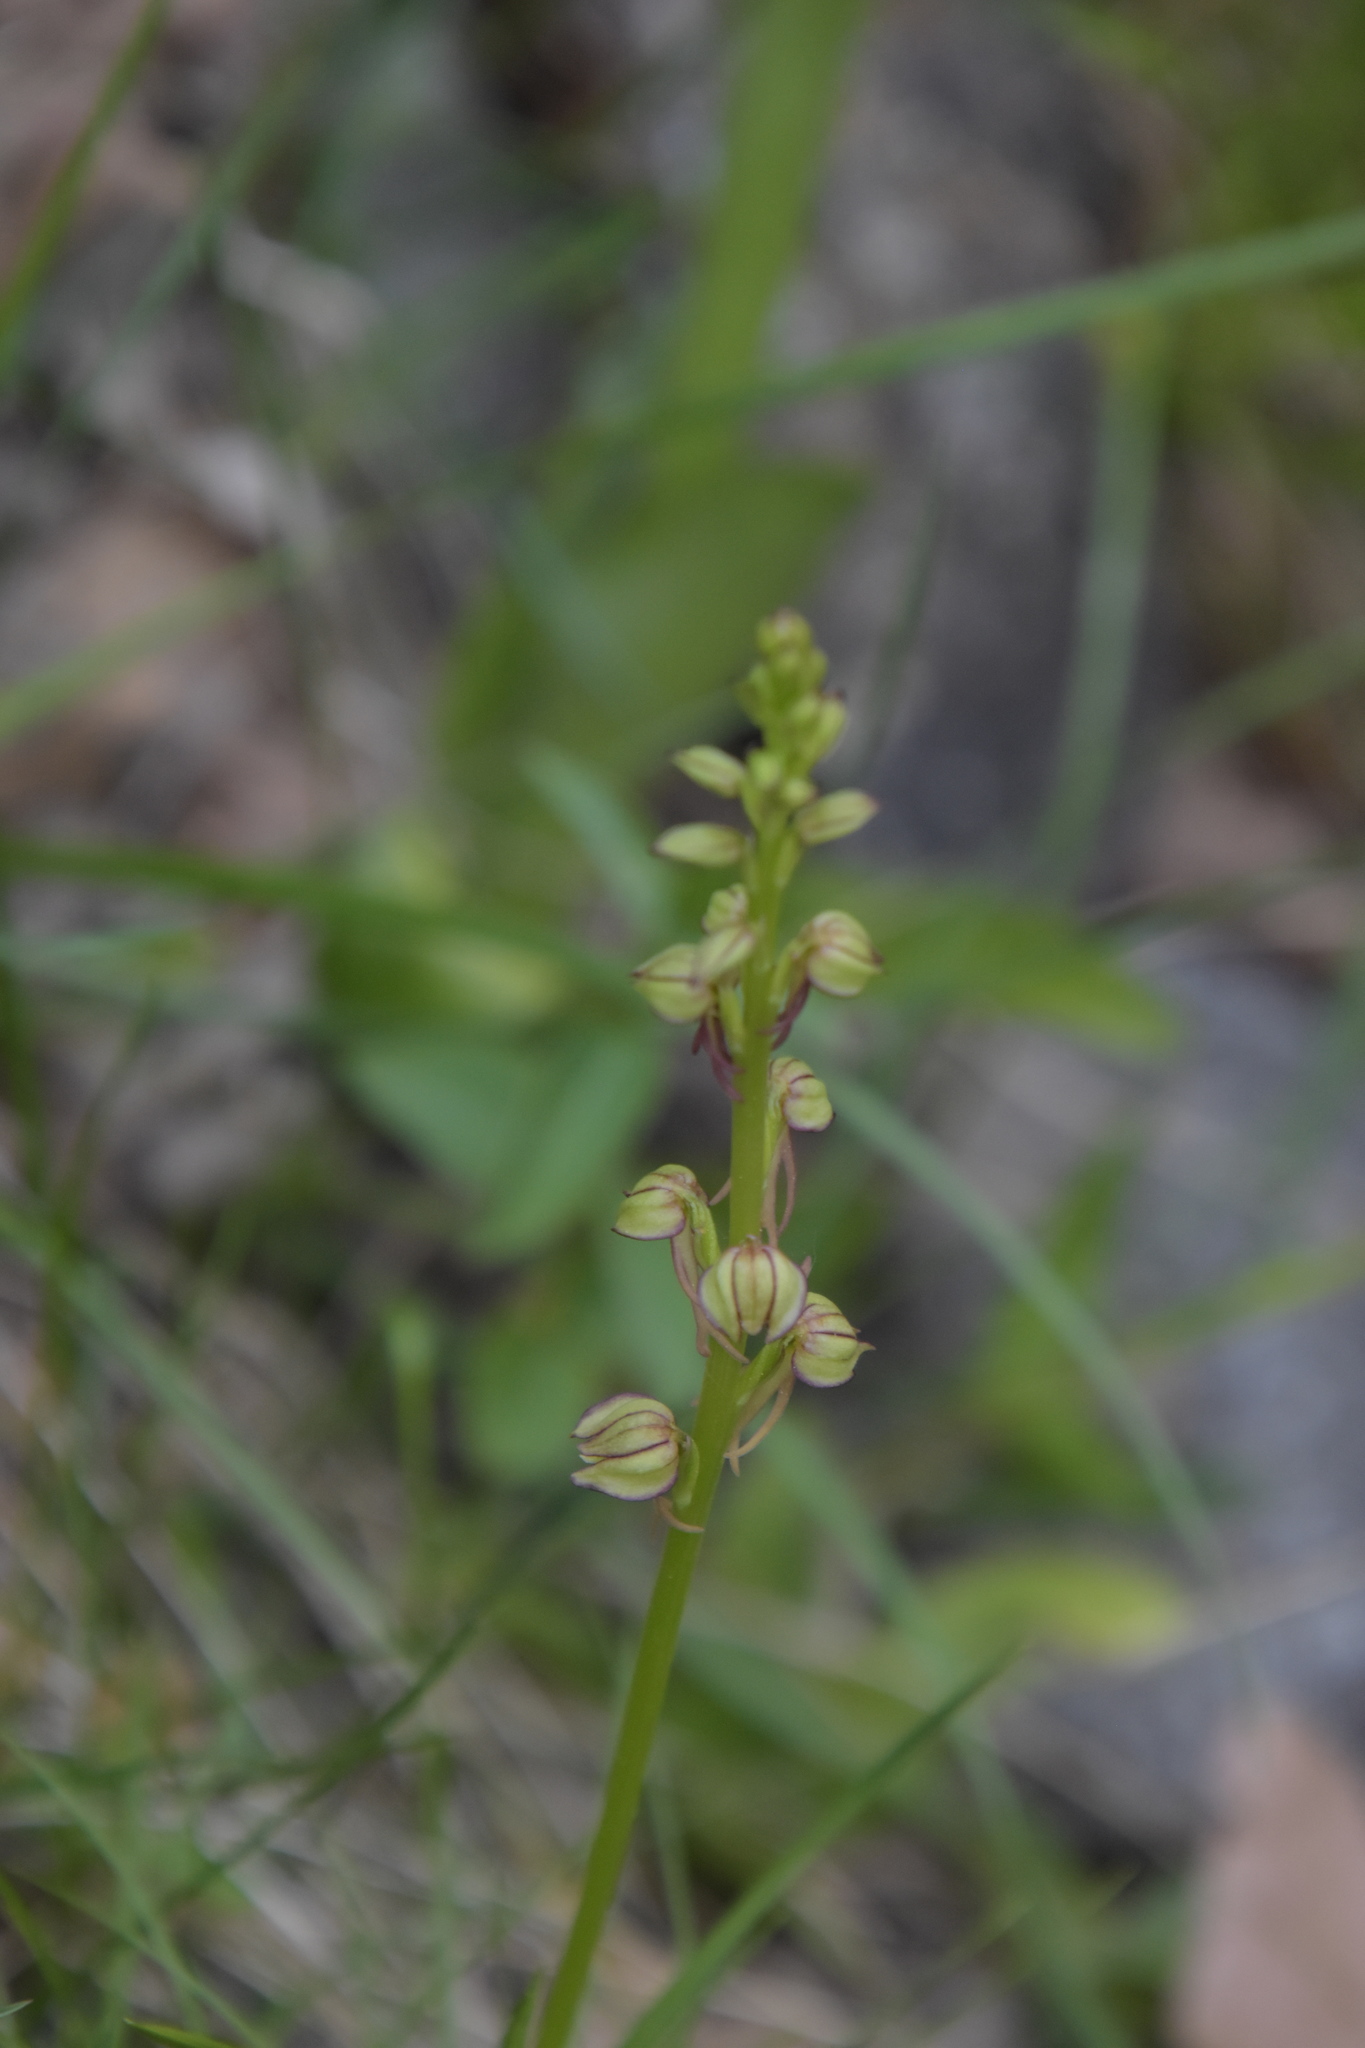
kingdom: Plantae
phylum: Tracheophyta
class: Liliopsida
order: Asparagales
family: Orchidaceae
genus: Orchis
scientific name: Orchis anthropophora
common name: Man orchid
